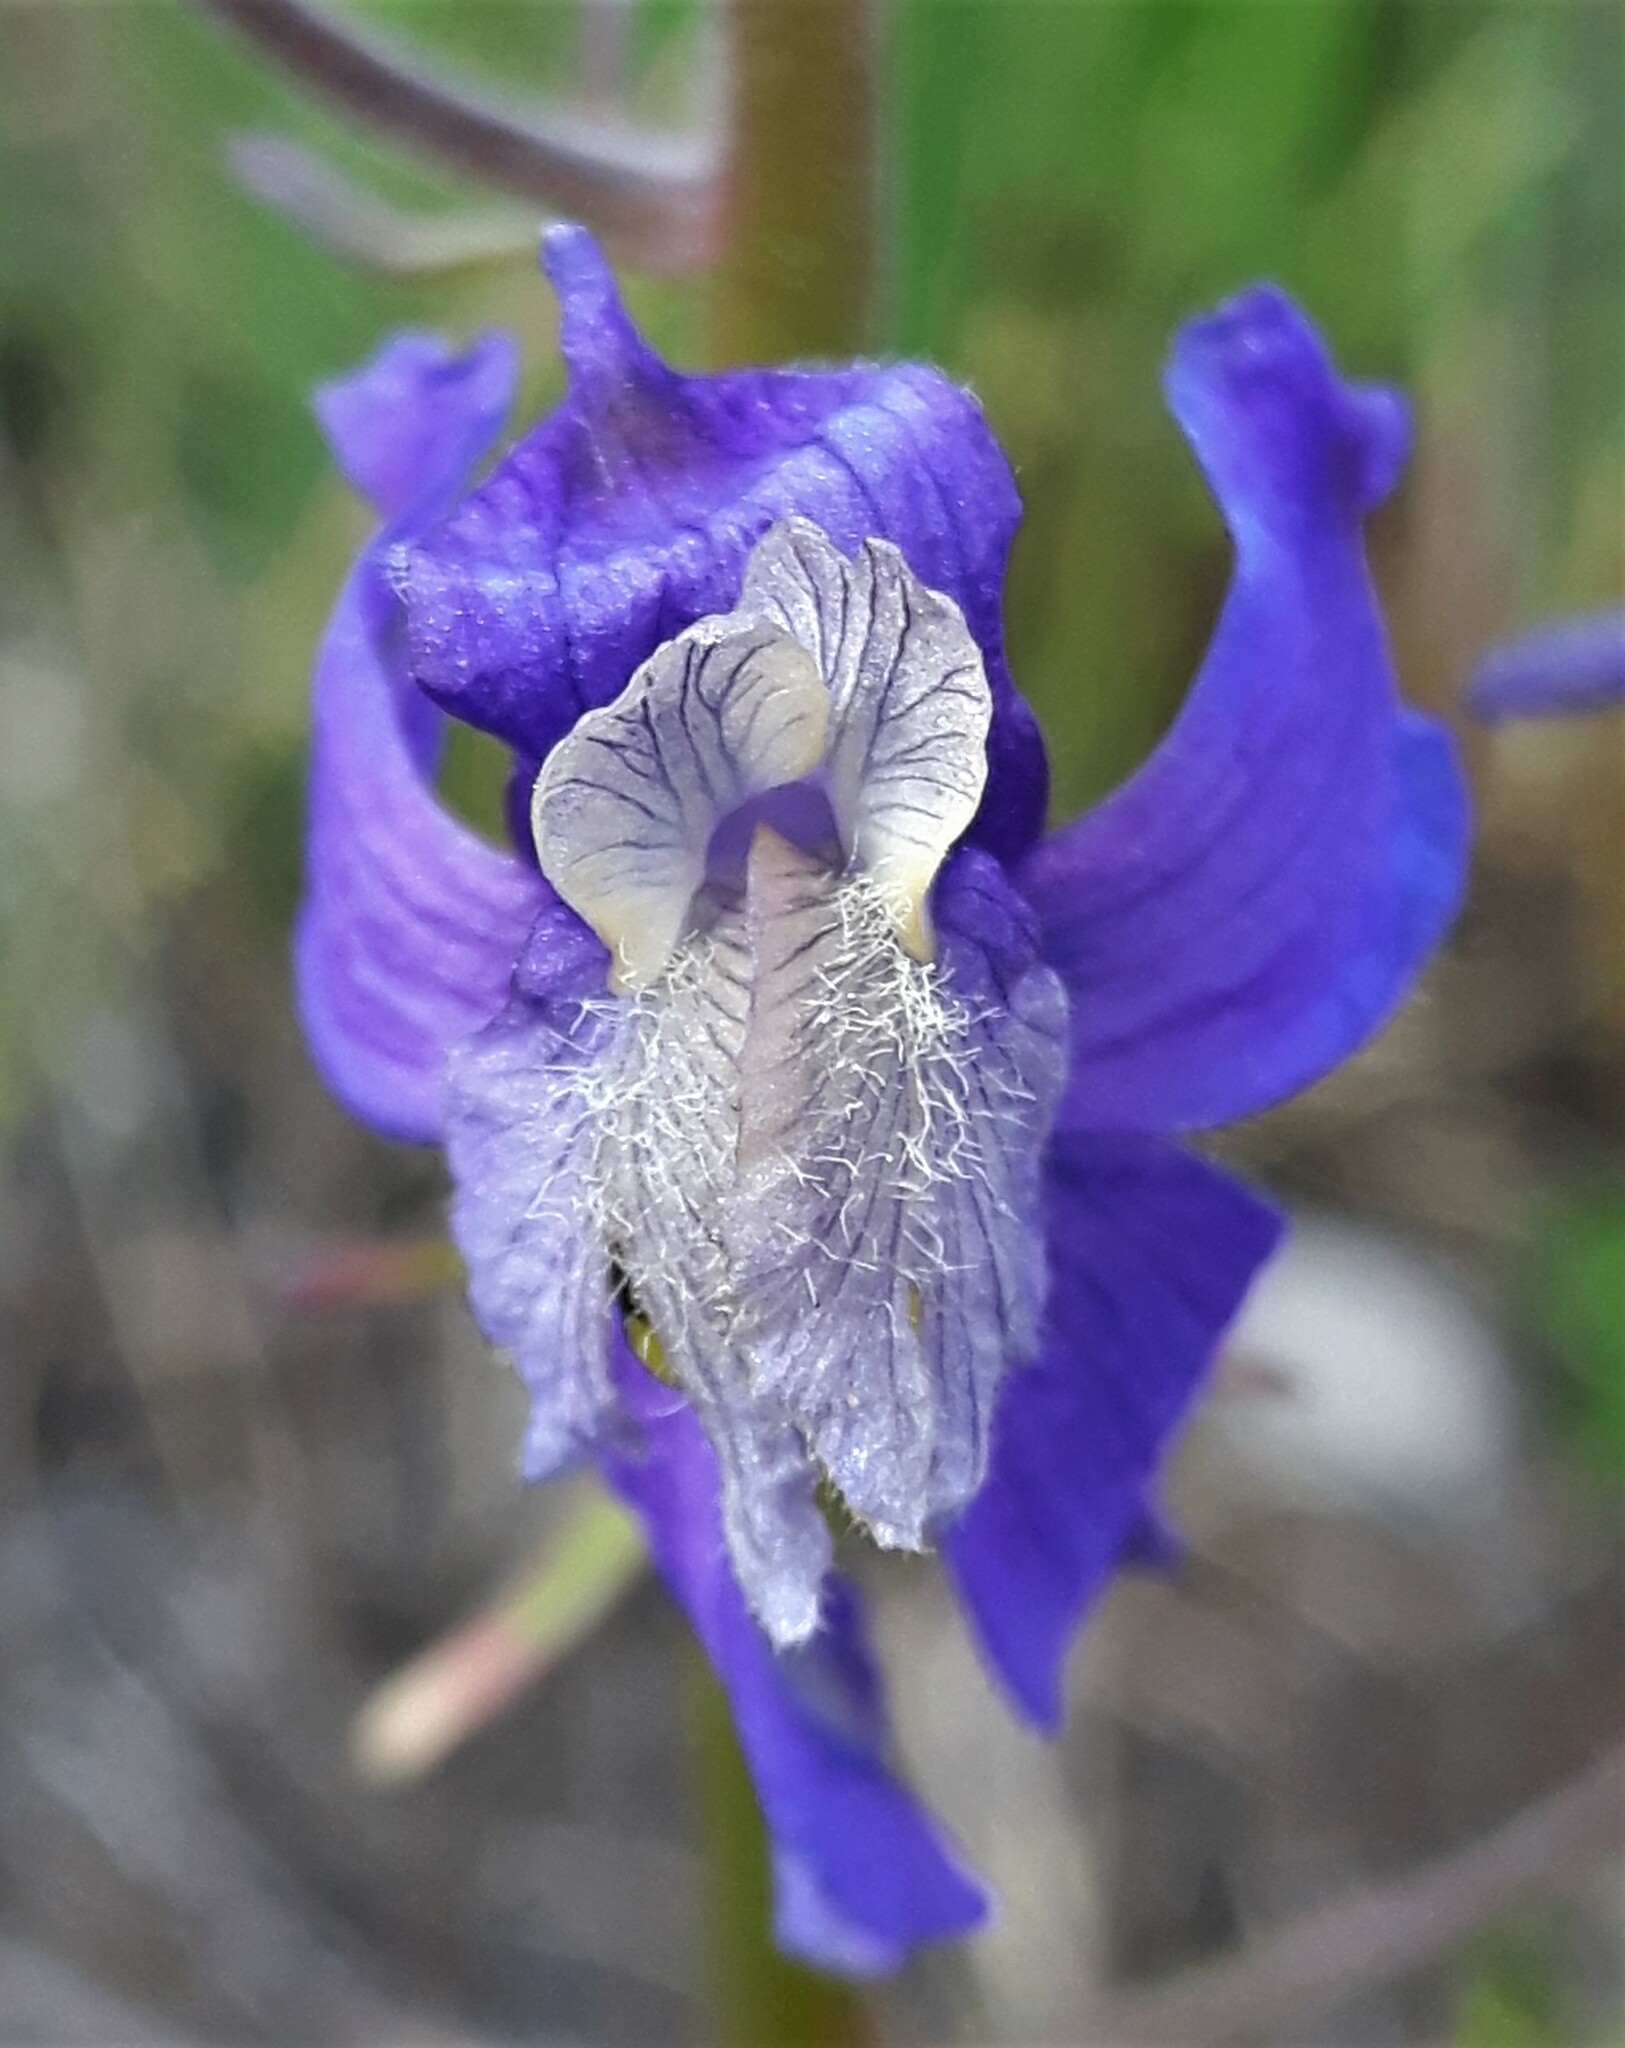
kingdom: Plantae
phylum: Tracheophyta
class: Magnoliopsida
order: Ranunculales
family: Ranunculaceae
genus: Delphinium
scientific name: Delphinium sutherlandii
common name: Sutherland's larkspur
